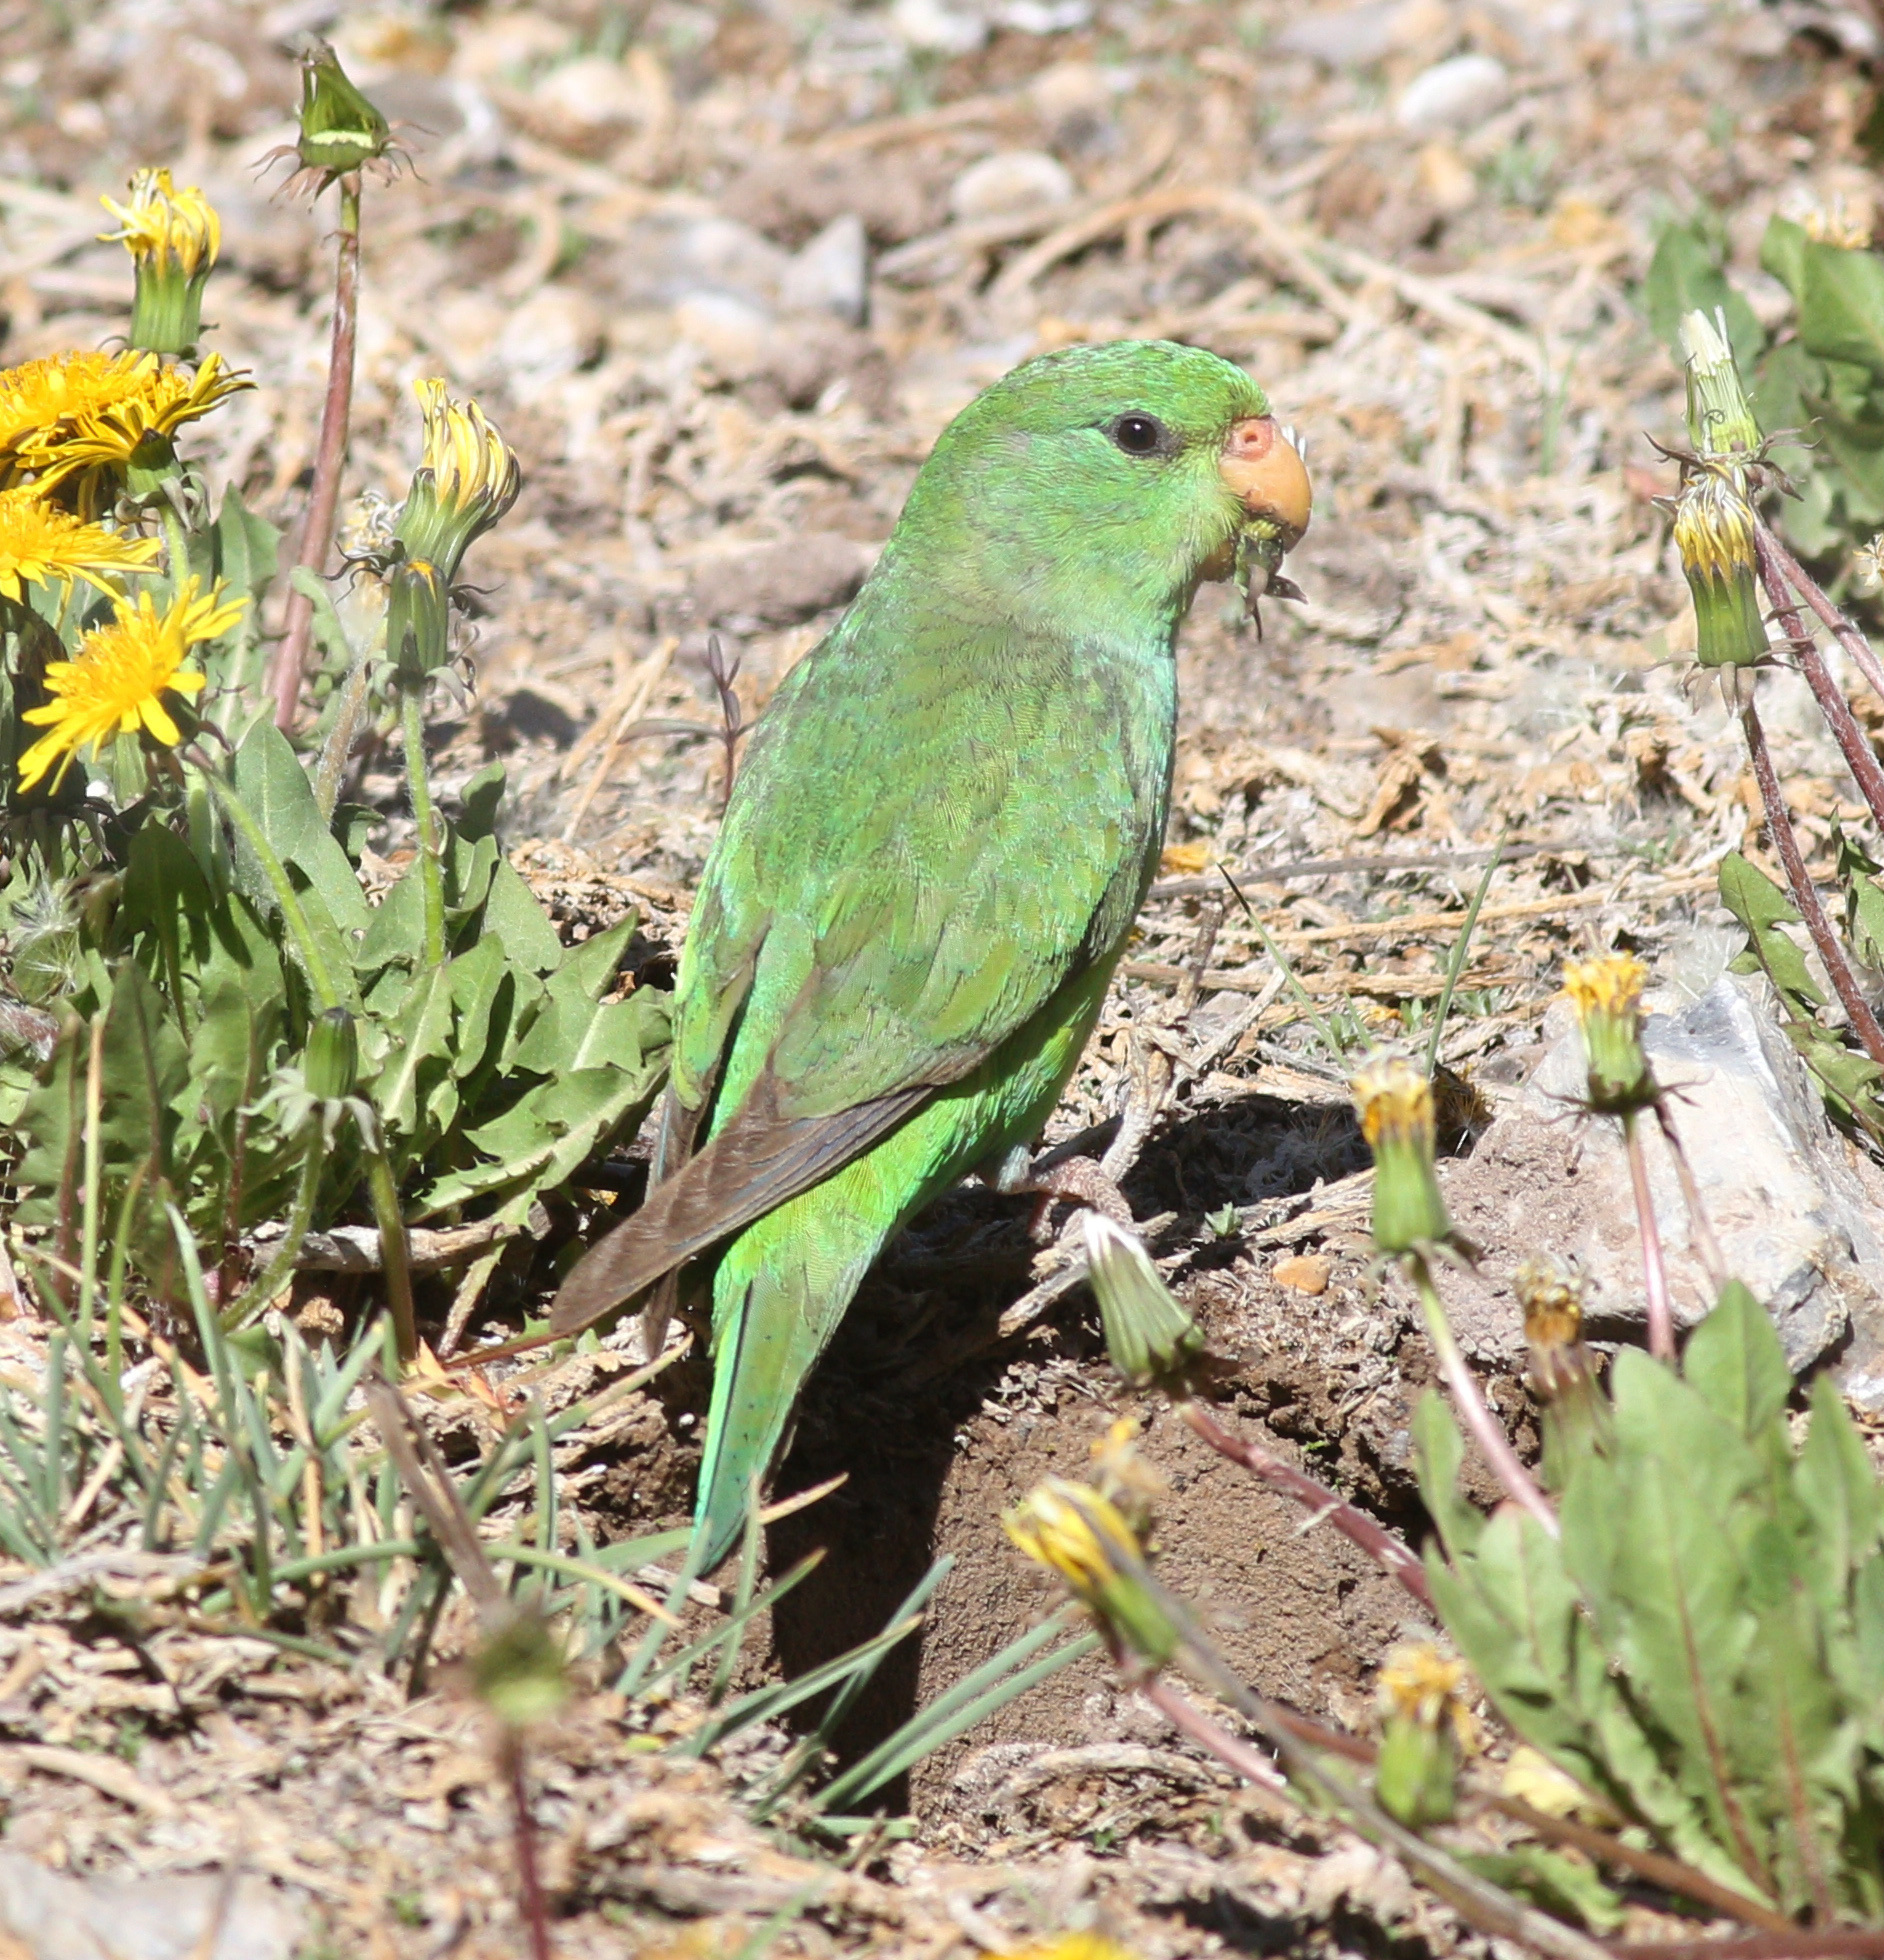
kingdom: Animalia
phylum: Chordata
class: Aves
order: Psittaciformes
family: Psittacidae
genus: Psilopsiagon
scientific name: Psilopsiagon aurifrons
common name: Mountain parakeet
